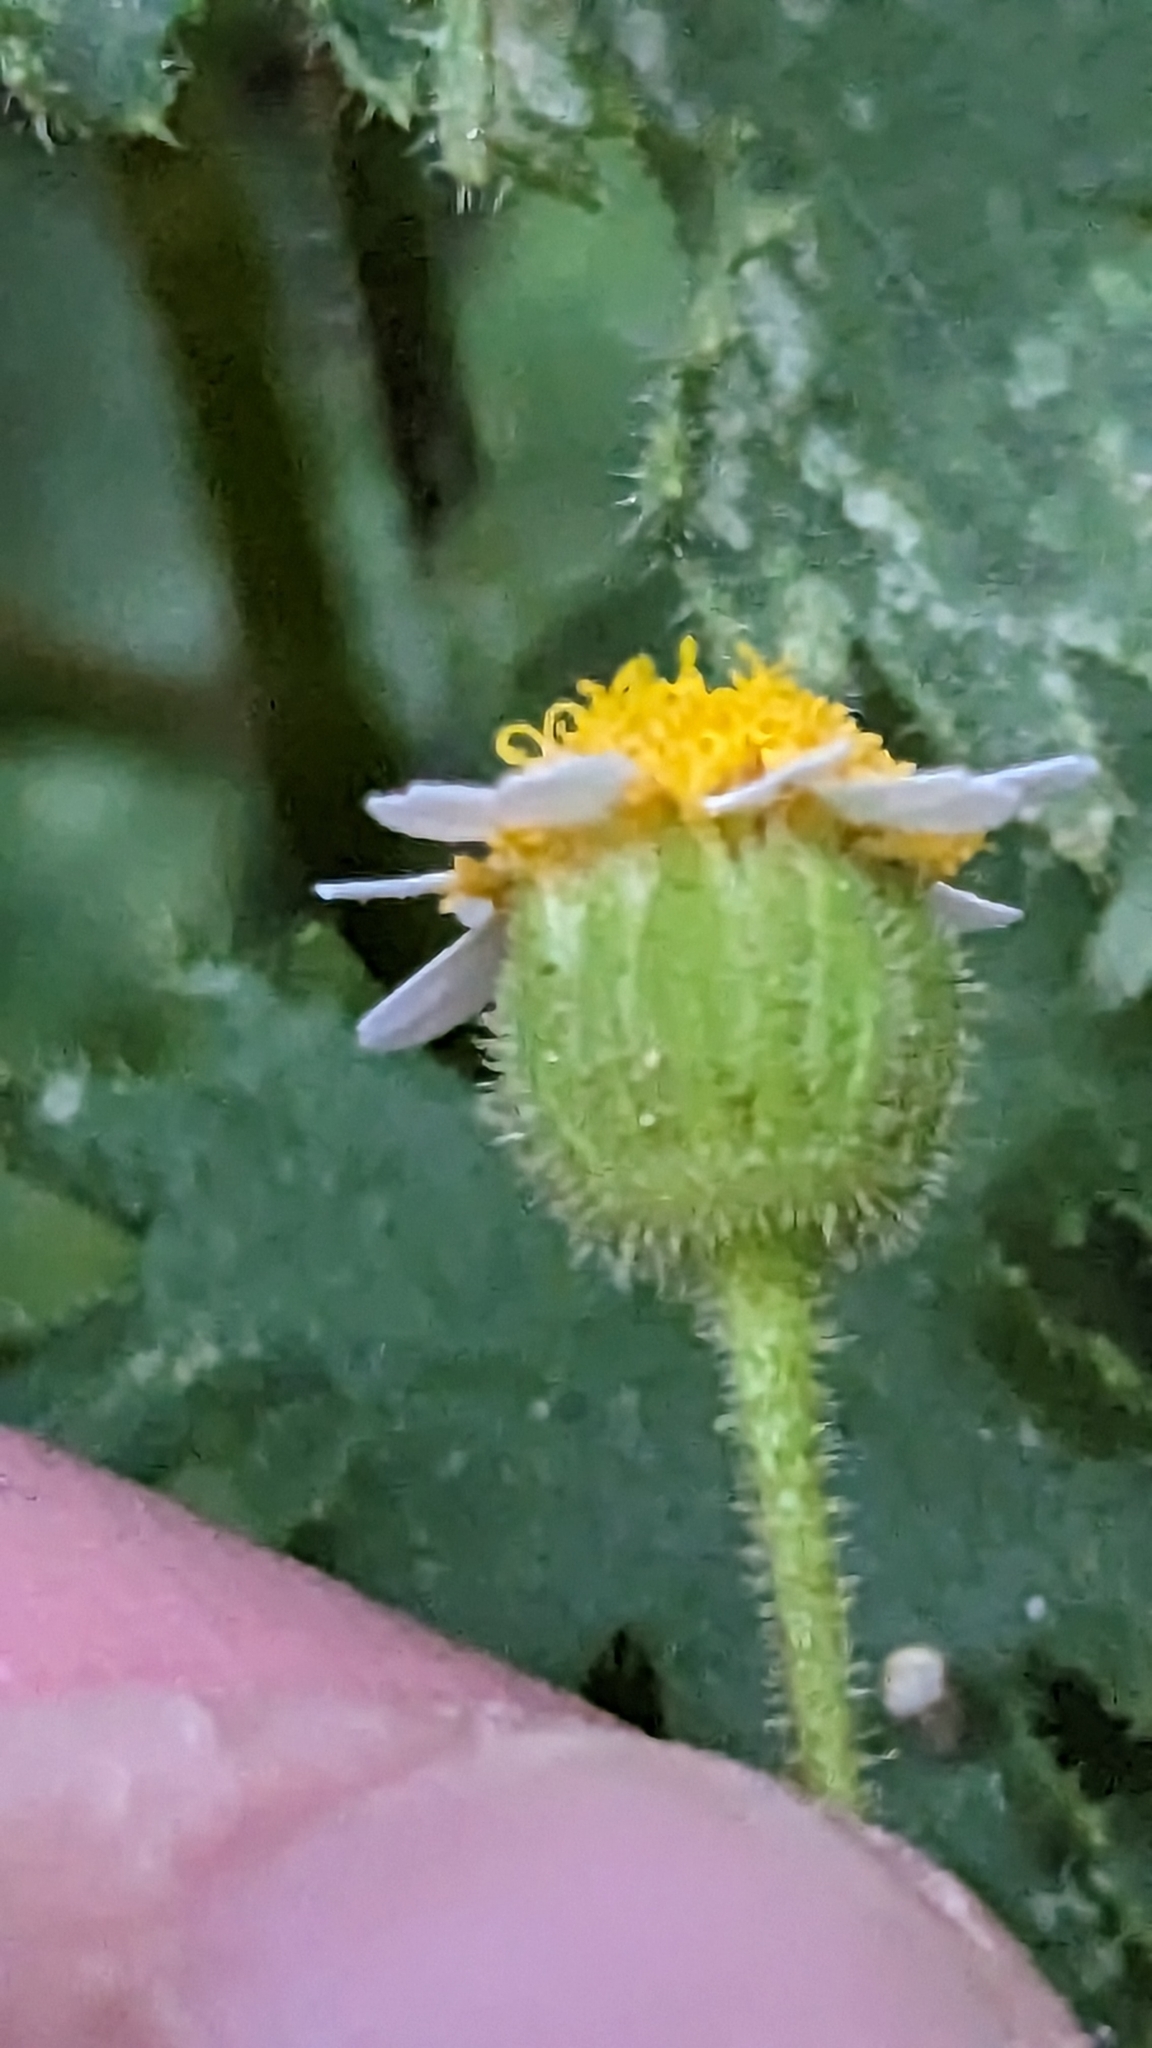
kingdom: Plantae
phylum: Tracheophyta
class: Magnoliopsida
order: Asterales
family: Asteraceae
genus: Laphamia
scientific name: Laphamia emoryi
